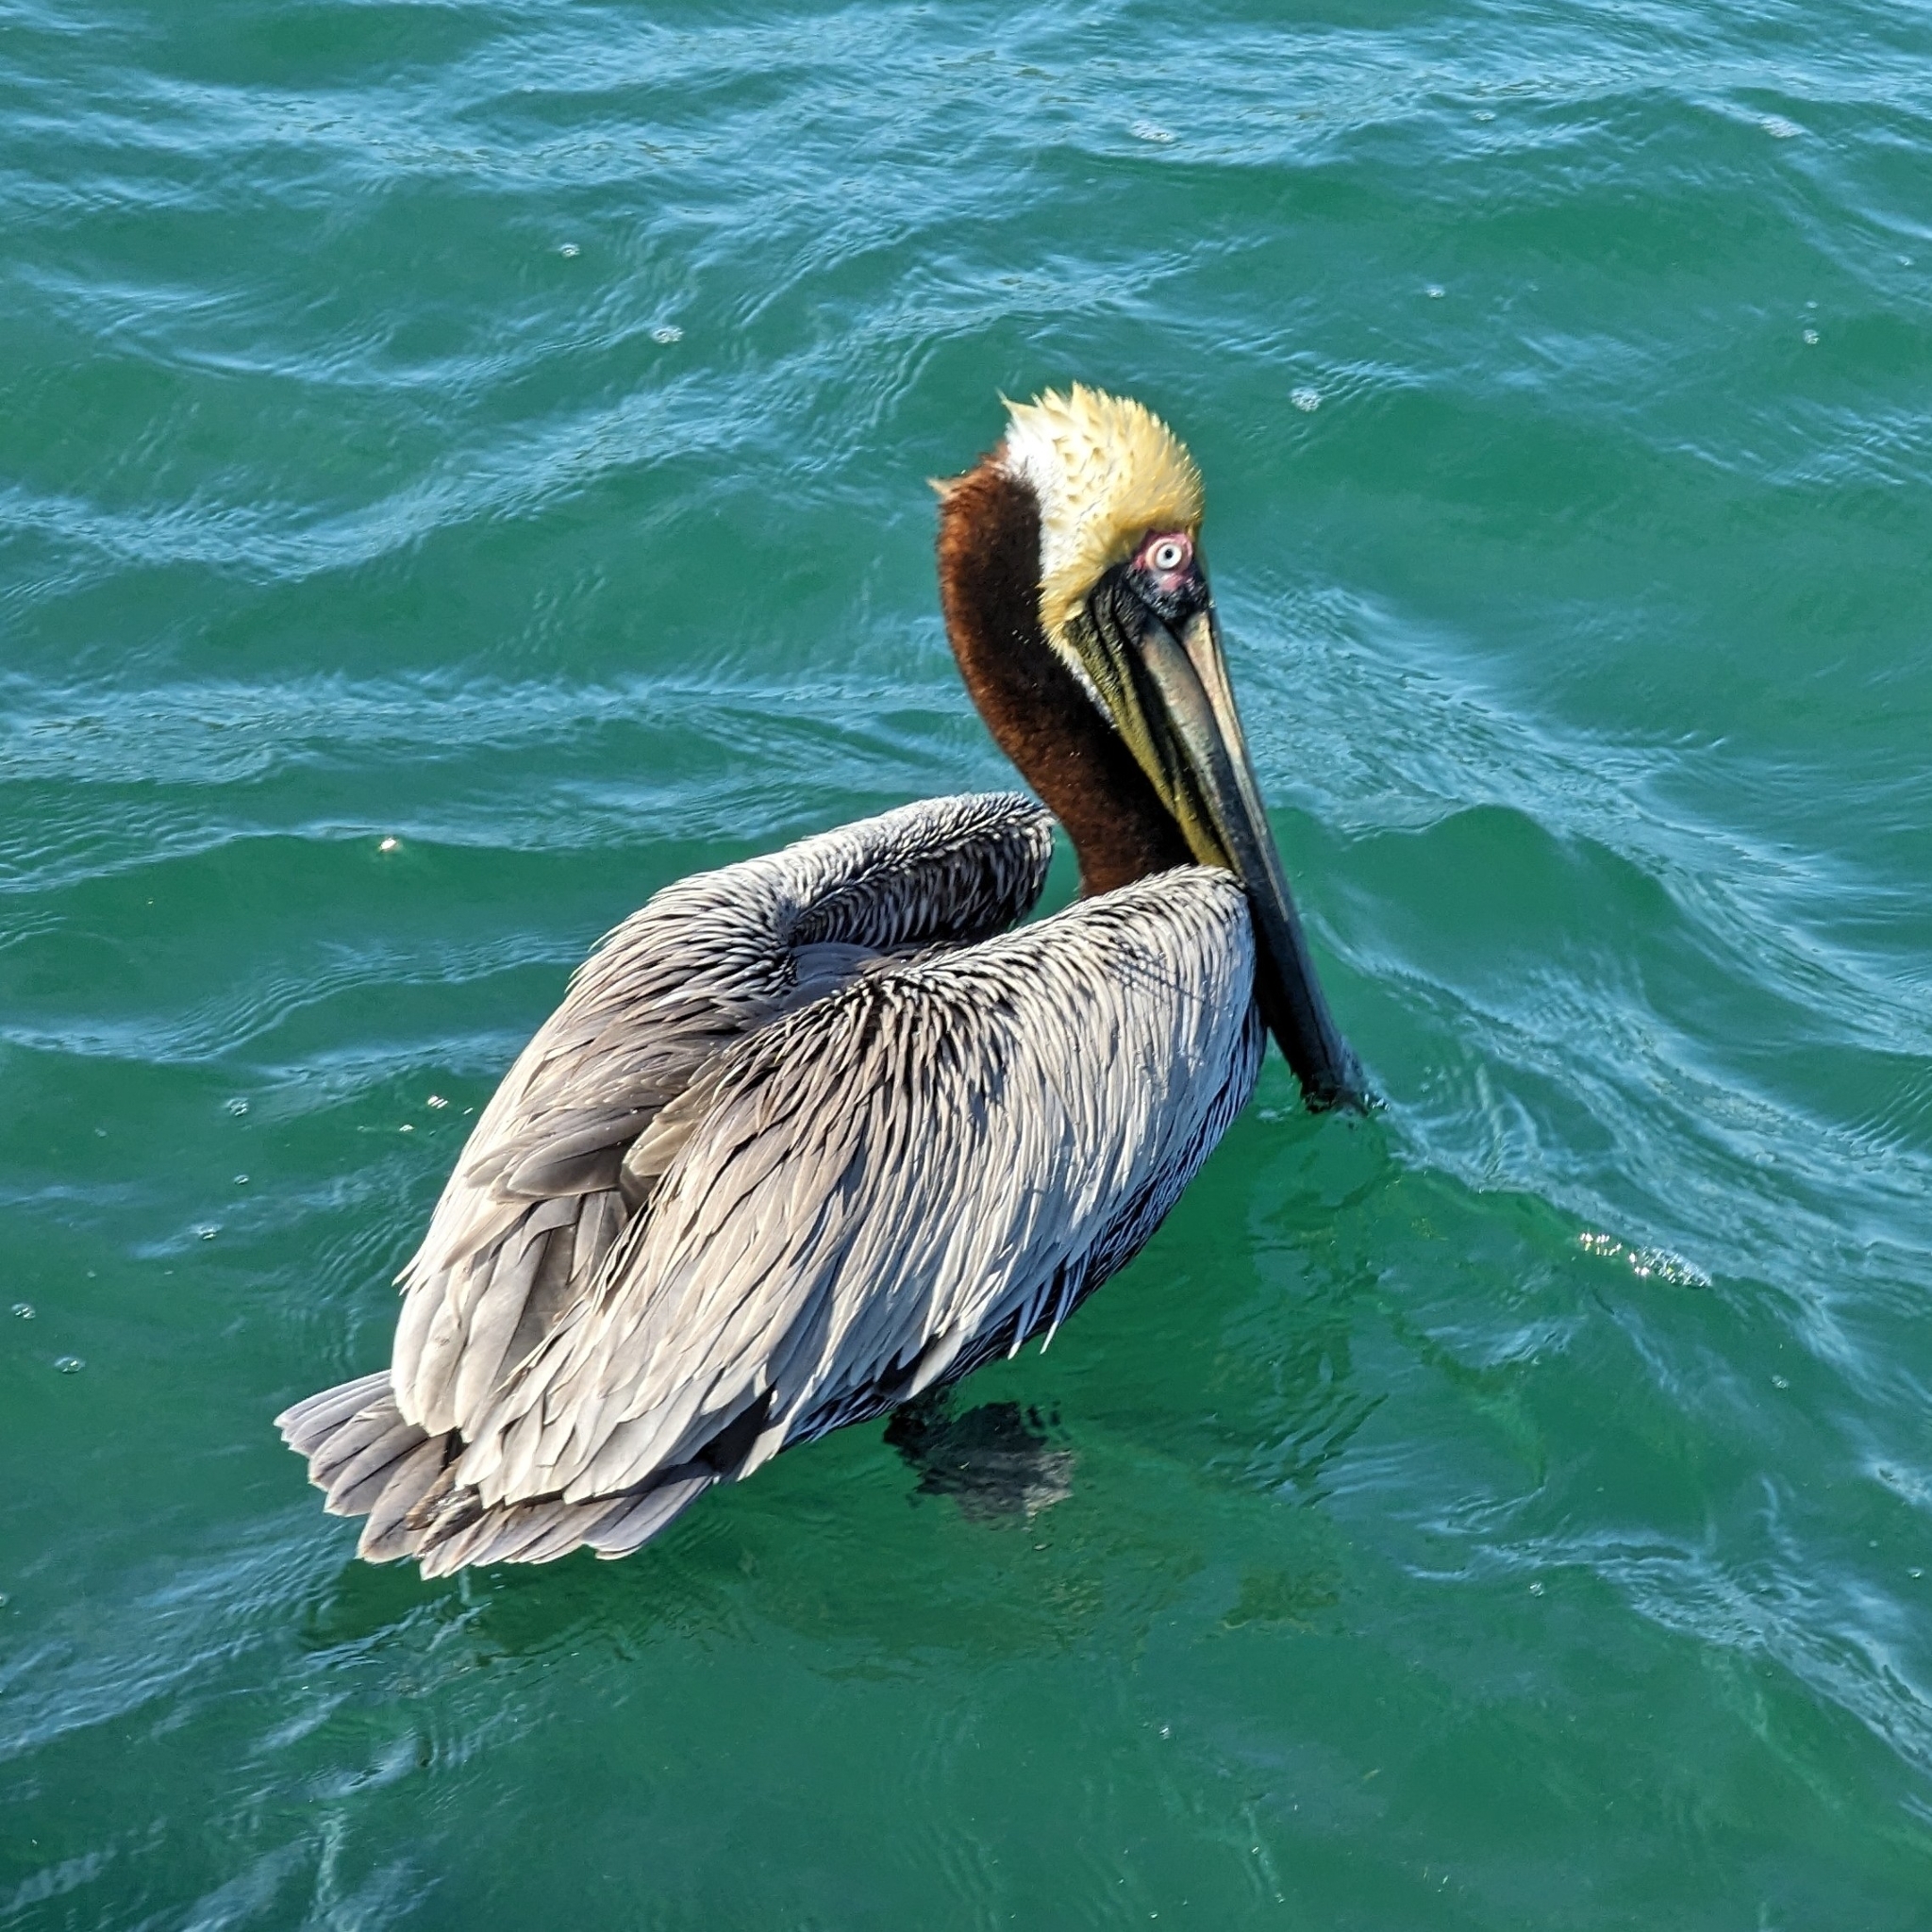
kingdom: Animalia
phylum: Chordata
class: Aves
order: Pelecaniformes
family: Pelecanidae
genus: Pelecanus
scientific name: Pelecanus occidentalis
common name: Brown pelican
